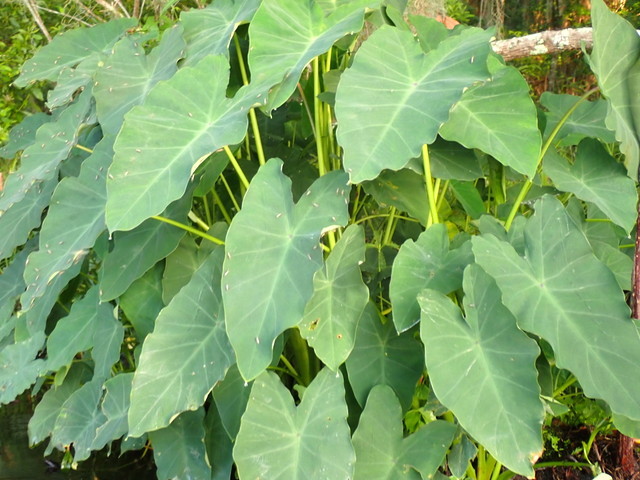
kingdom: Plantae
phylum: Tracheophyta
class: Liliopsida
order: Alismatales
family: Araceae
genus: Colocasia
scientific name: Colocasia esculenta
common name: Taro
